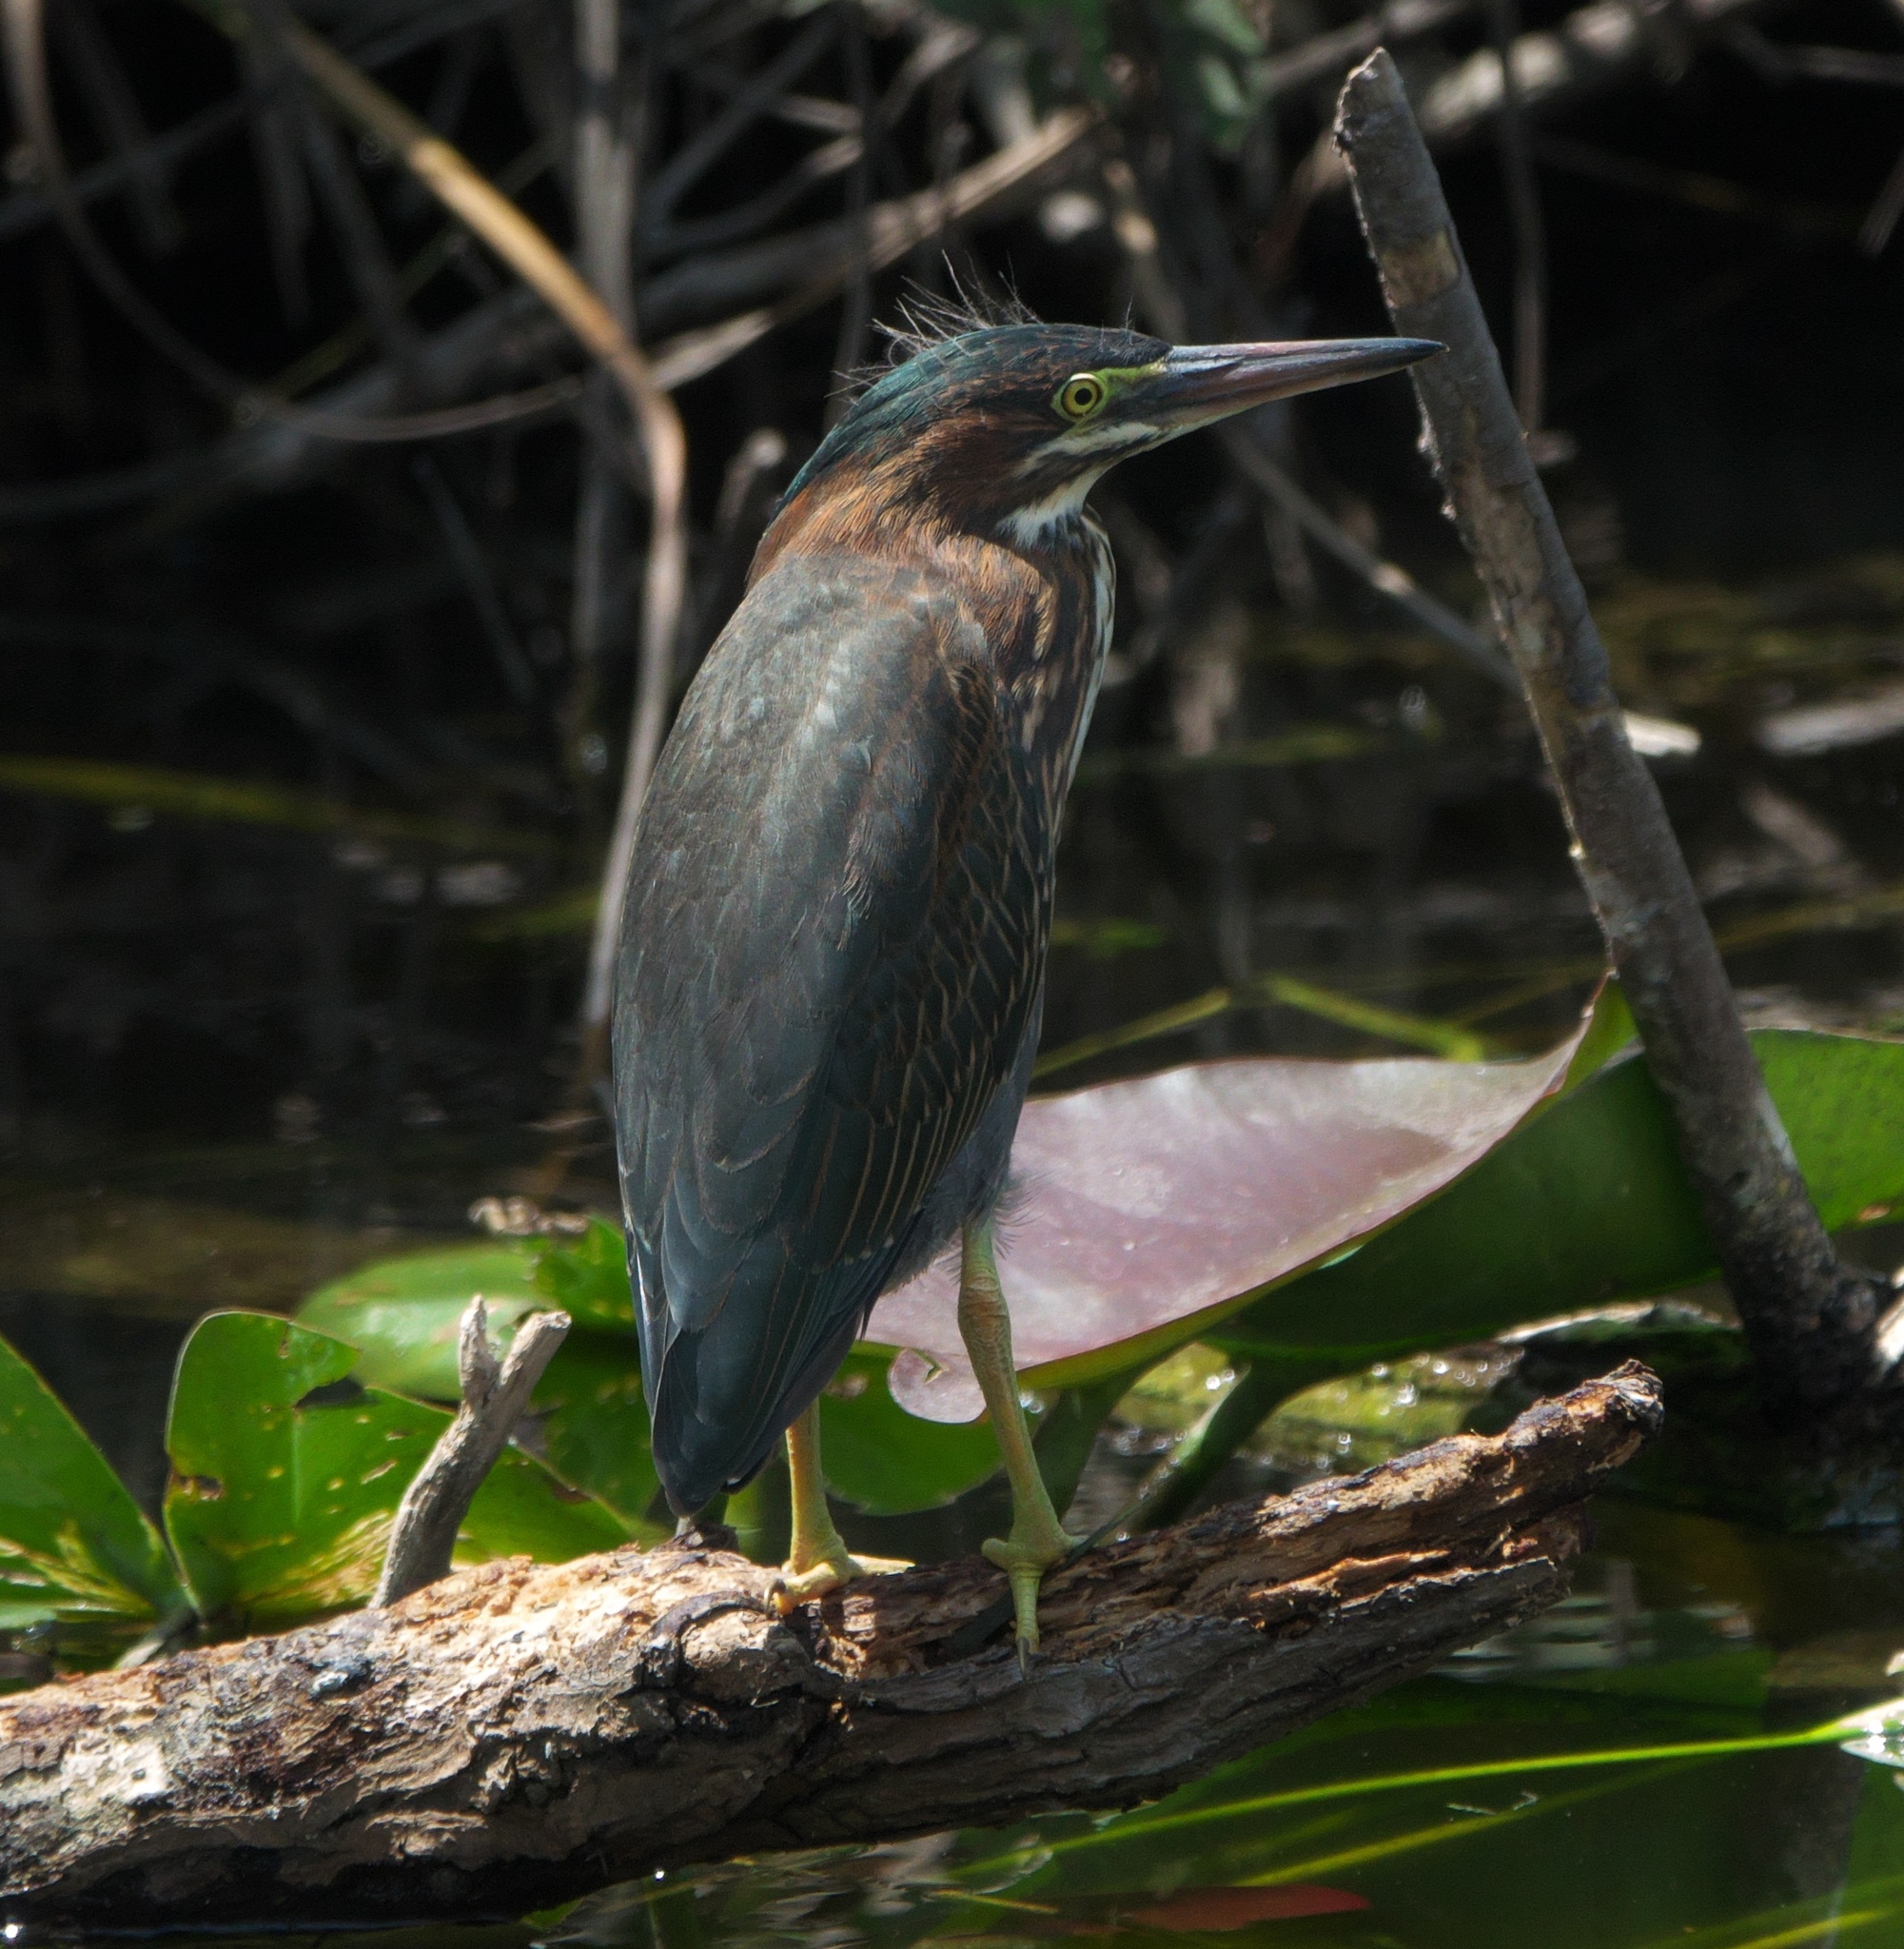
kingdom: Animalia
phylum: Chordata
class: Aves
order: Pelecaniformes
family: Ardeidae
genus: Butorides
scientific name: Butorides virescens
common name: Green heron
